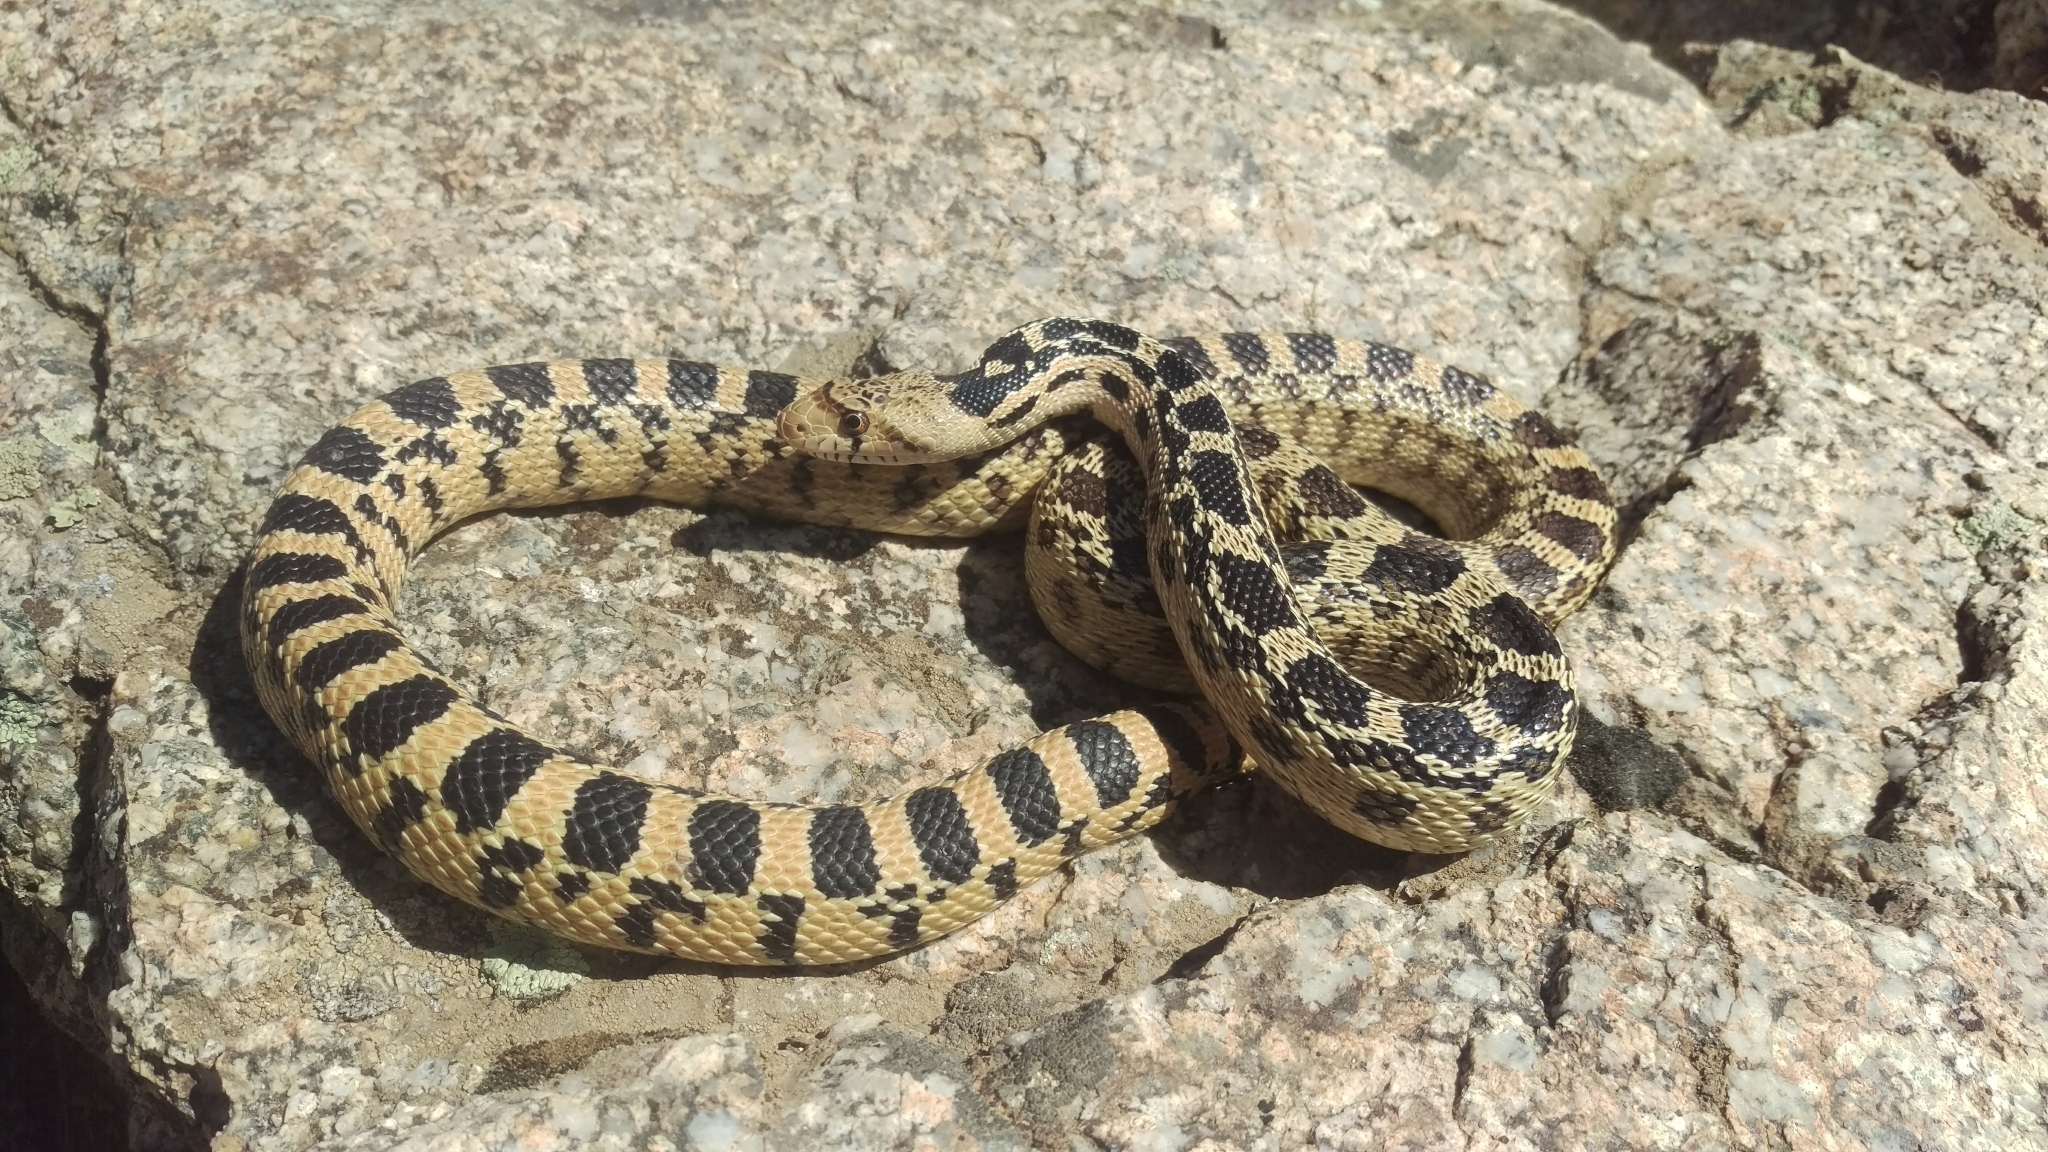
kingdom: Animalia
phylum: Chordata
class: Squamata
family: Colubridae
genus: Pituophis
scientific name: Pituophis catenifer
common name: Gopher snake
